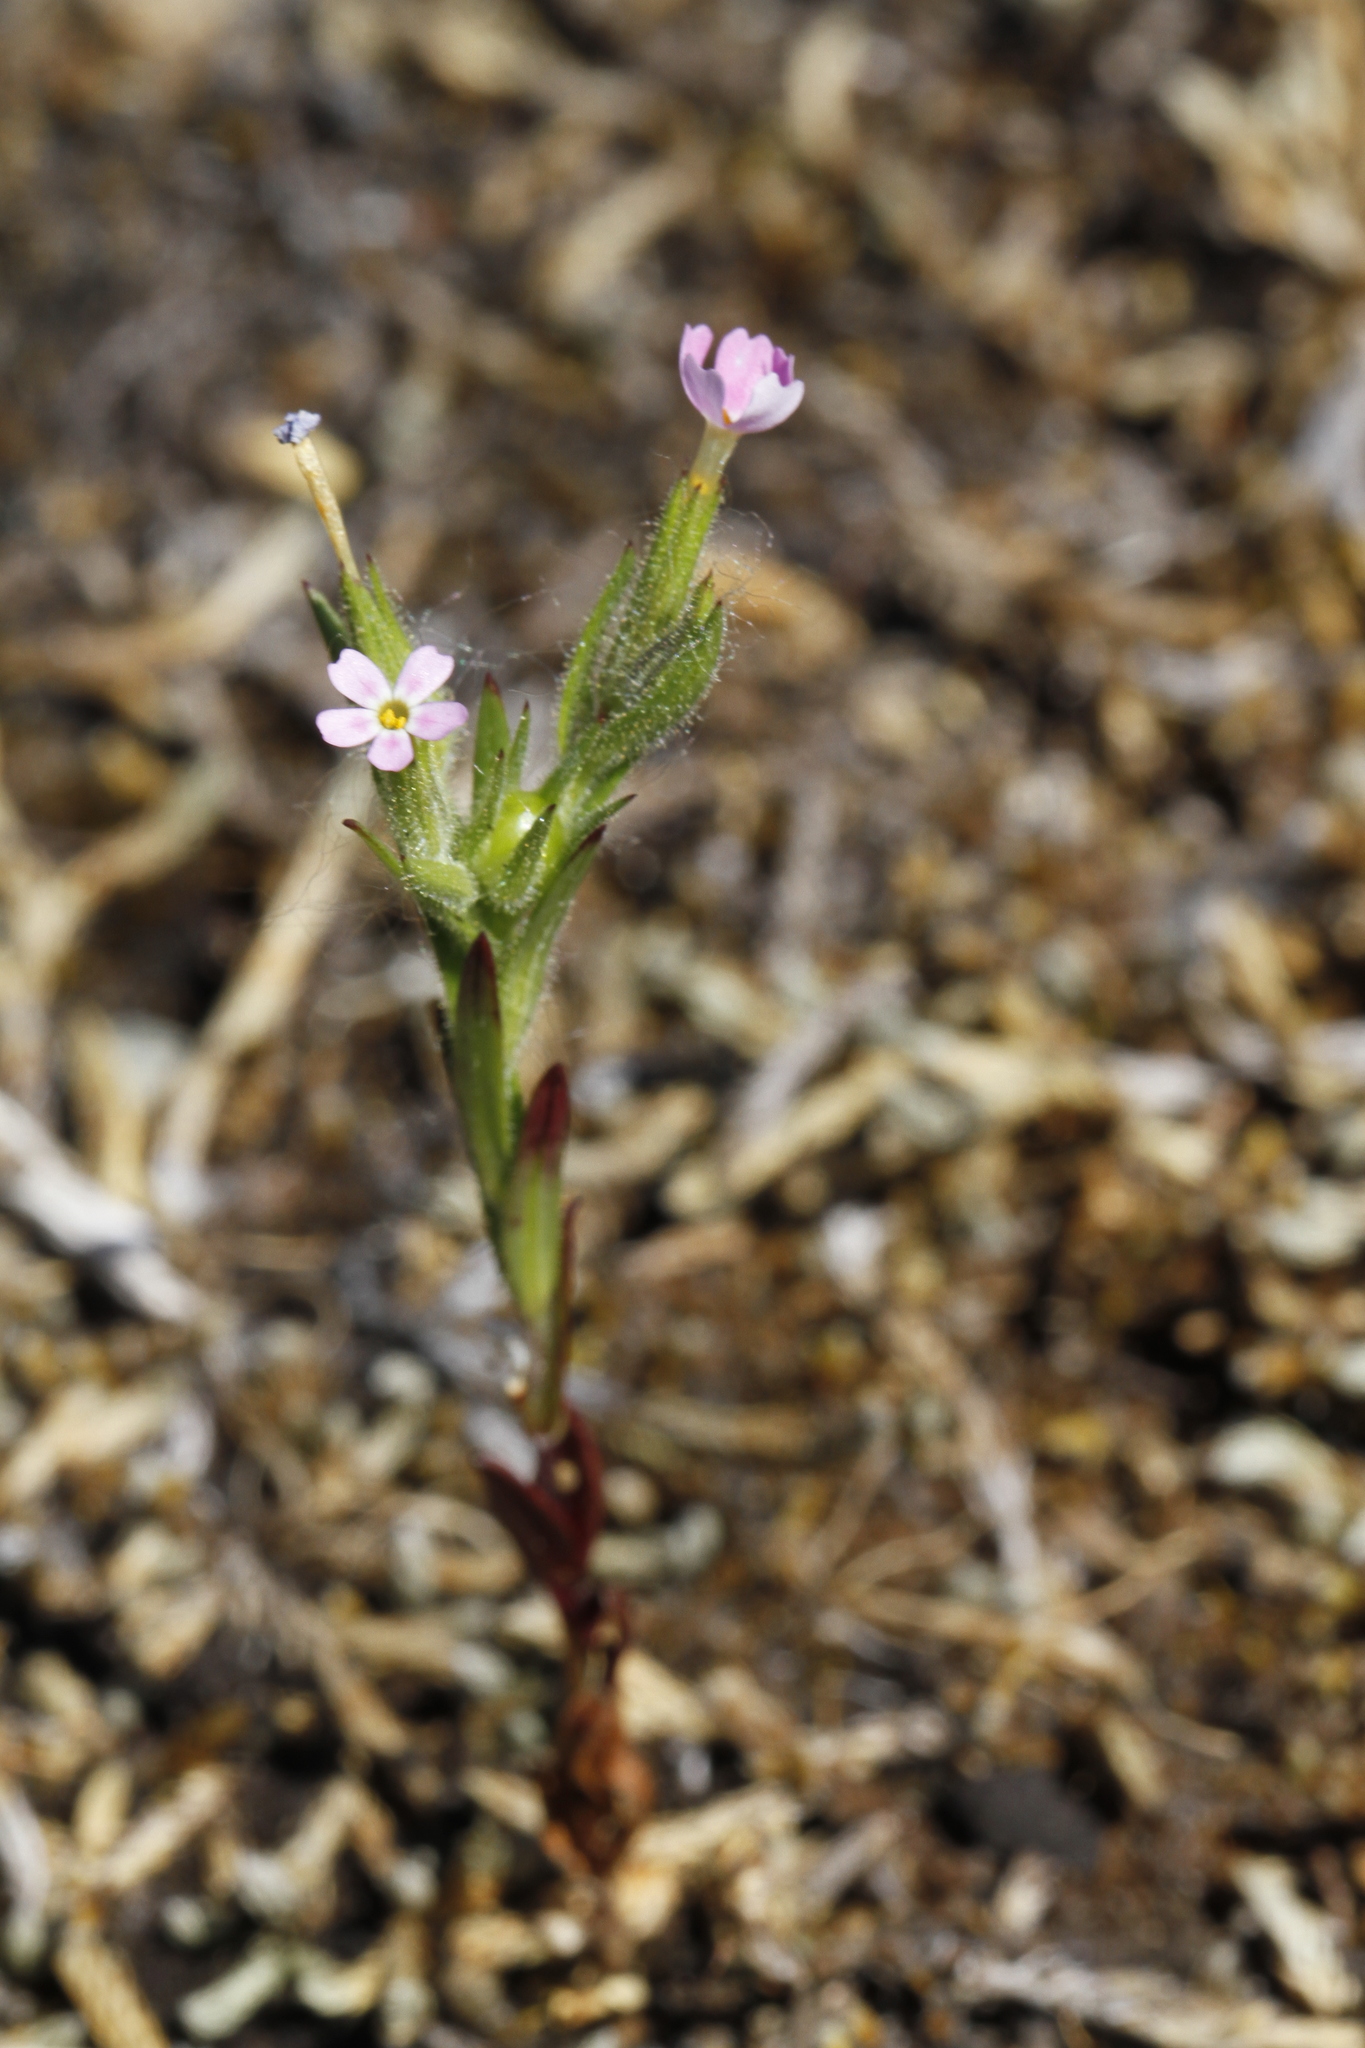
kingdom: Plantae
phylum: Tracheophyta
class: Magnoliopsida
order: Ericales
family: Polemoniaceae
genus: Phlox
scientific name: Phlox gracilis
